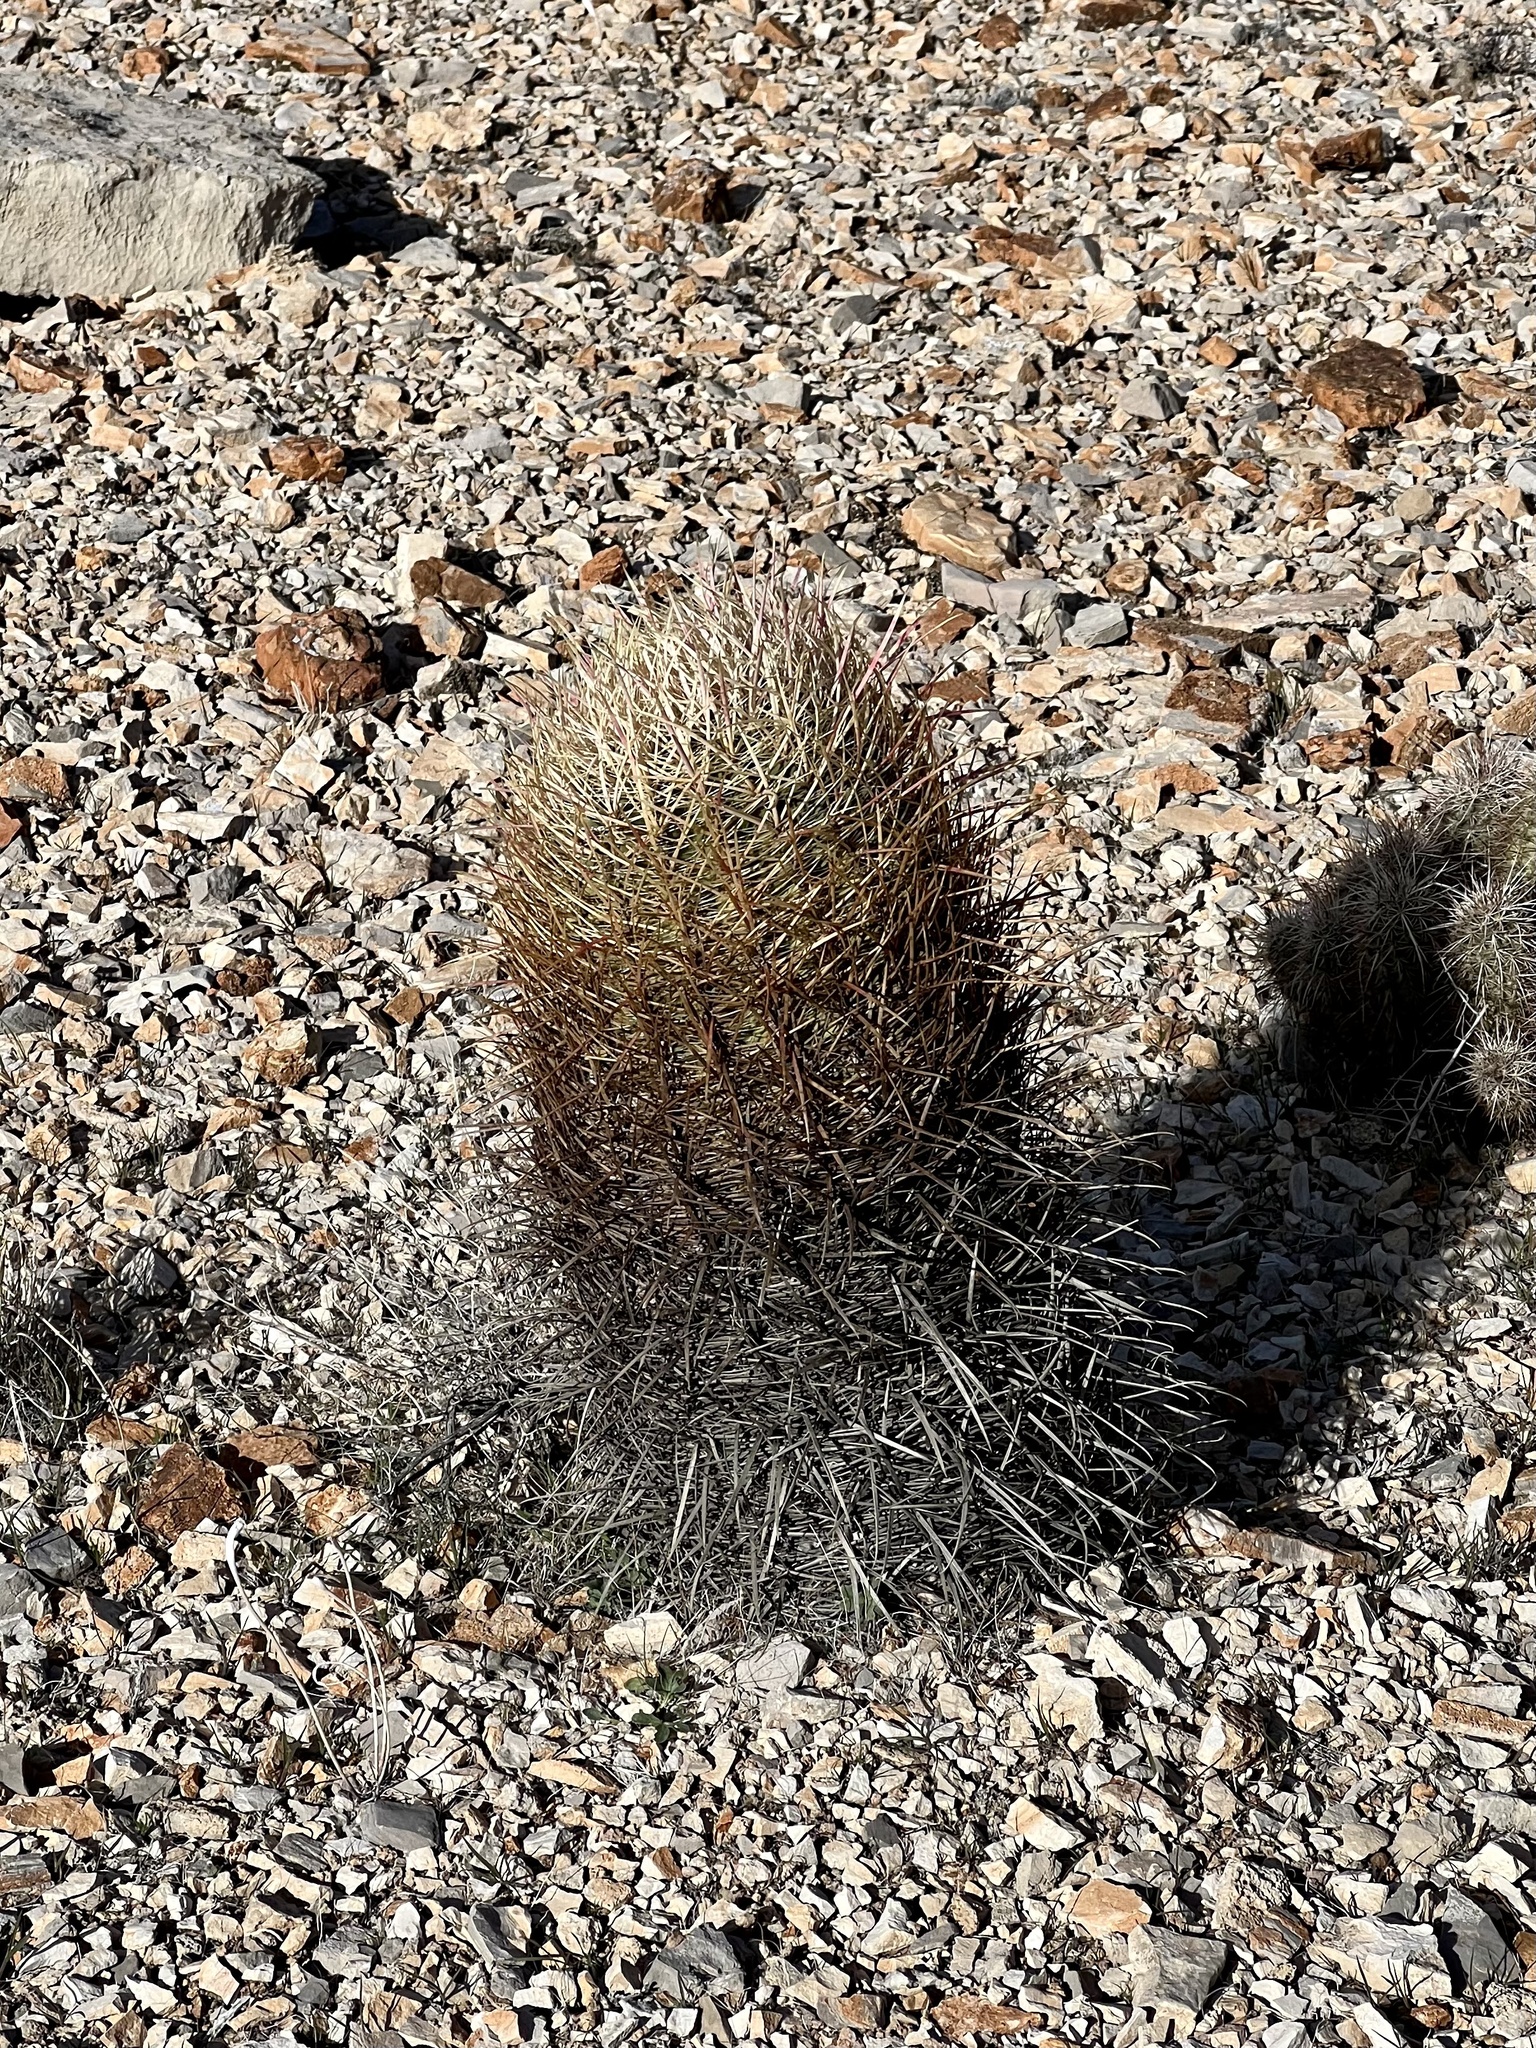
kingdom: Plantae
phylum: Tracheophyta
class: Magnoliopsida
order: Caryophyllales
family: Cactaceae
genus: Ferocactus
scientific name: Ferocactus cylindraceus
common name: California barrel cactus
